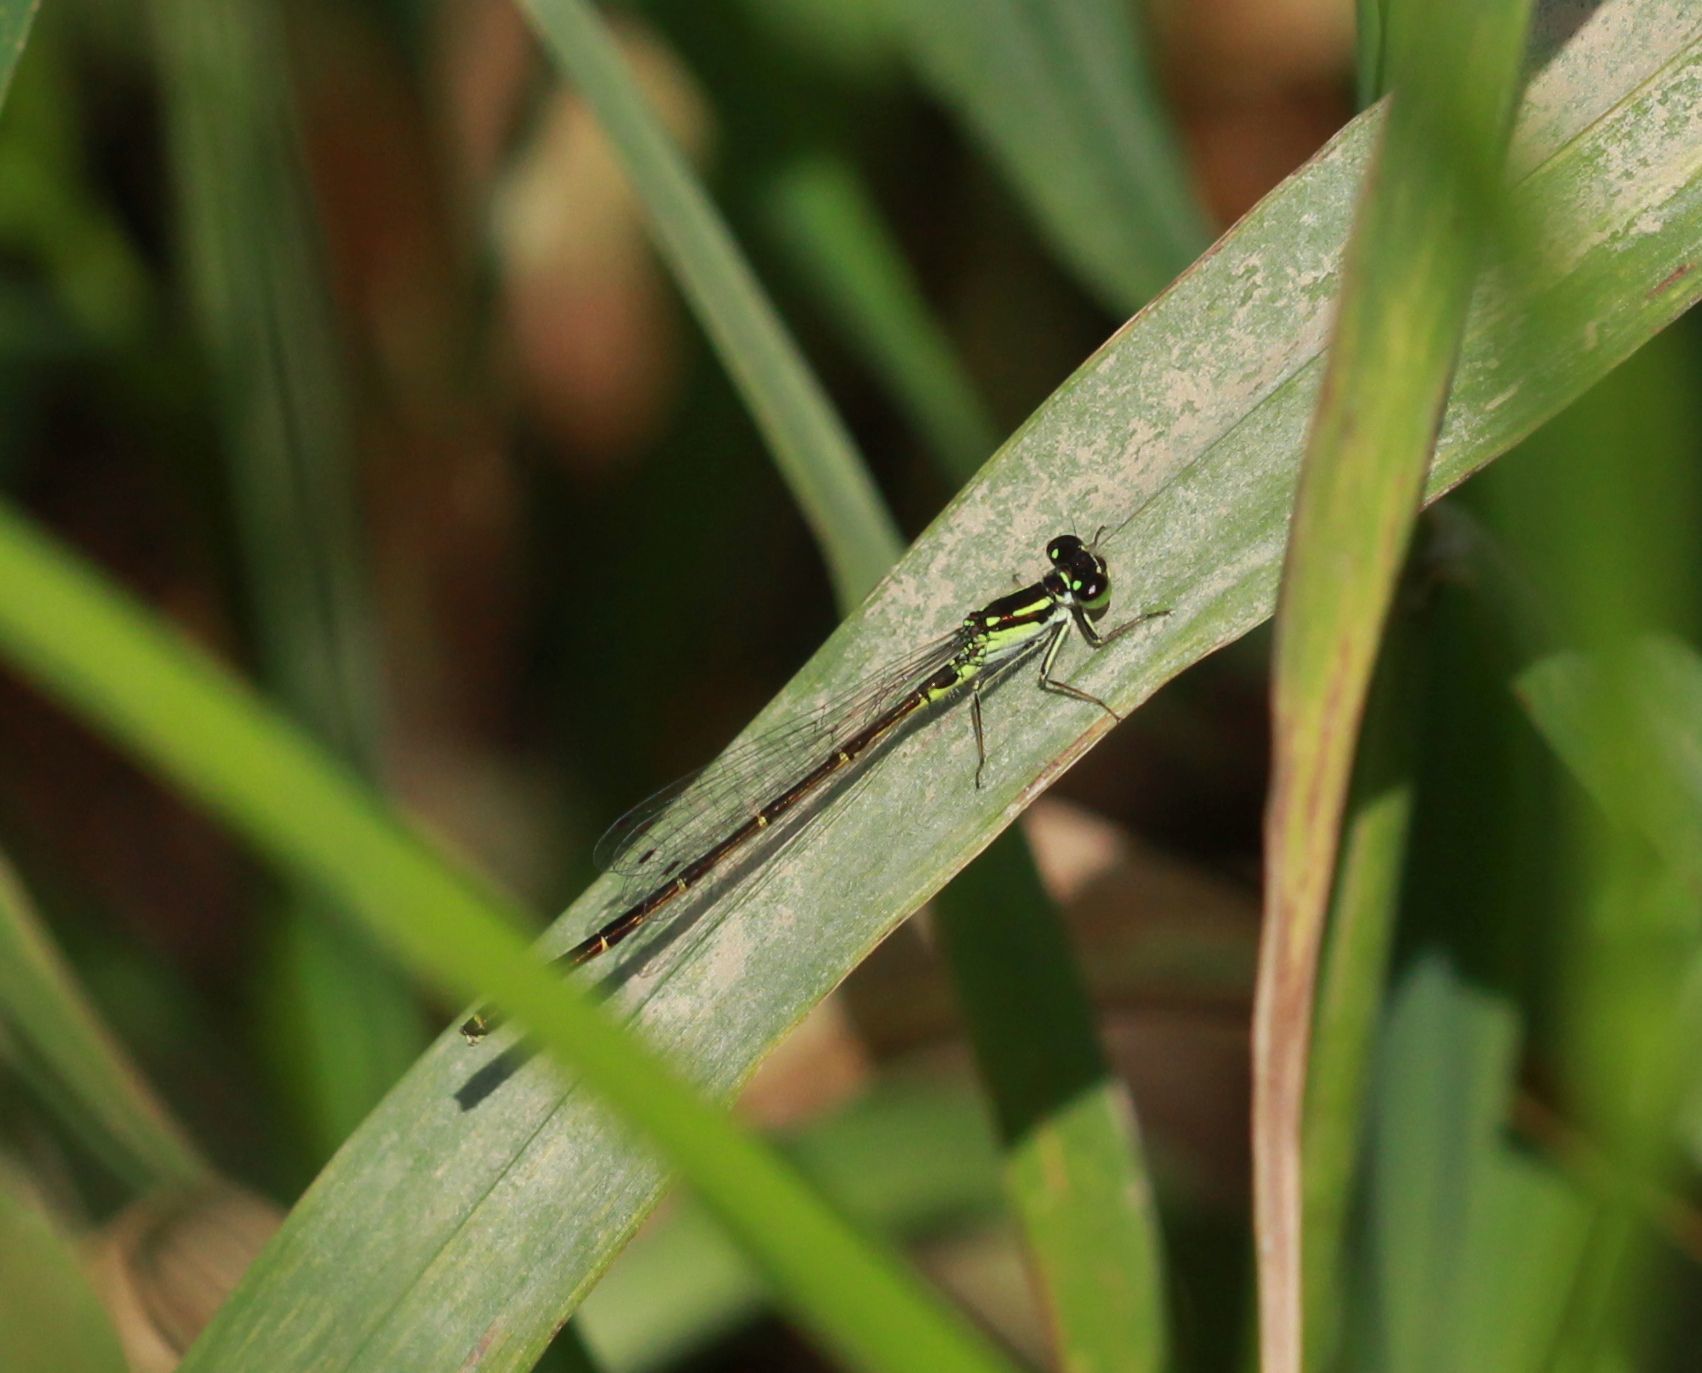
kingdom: Animalia
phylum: Arthropoda
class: Insecta
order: Odonata
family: Coenagrionidae
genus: Ischnura
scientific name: Ischnura posita
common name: Fragile forktail
